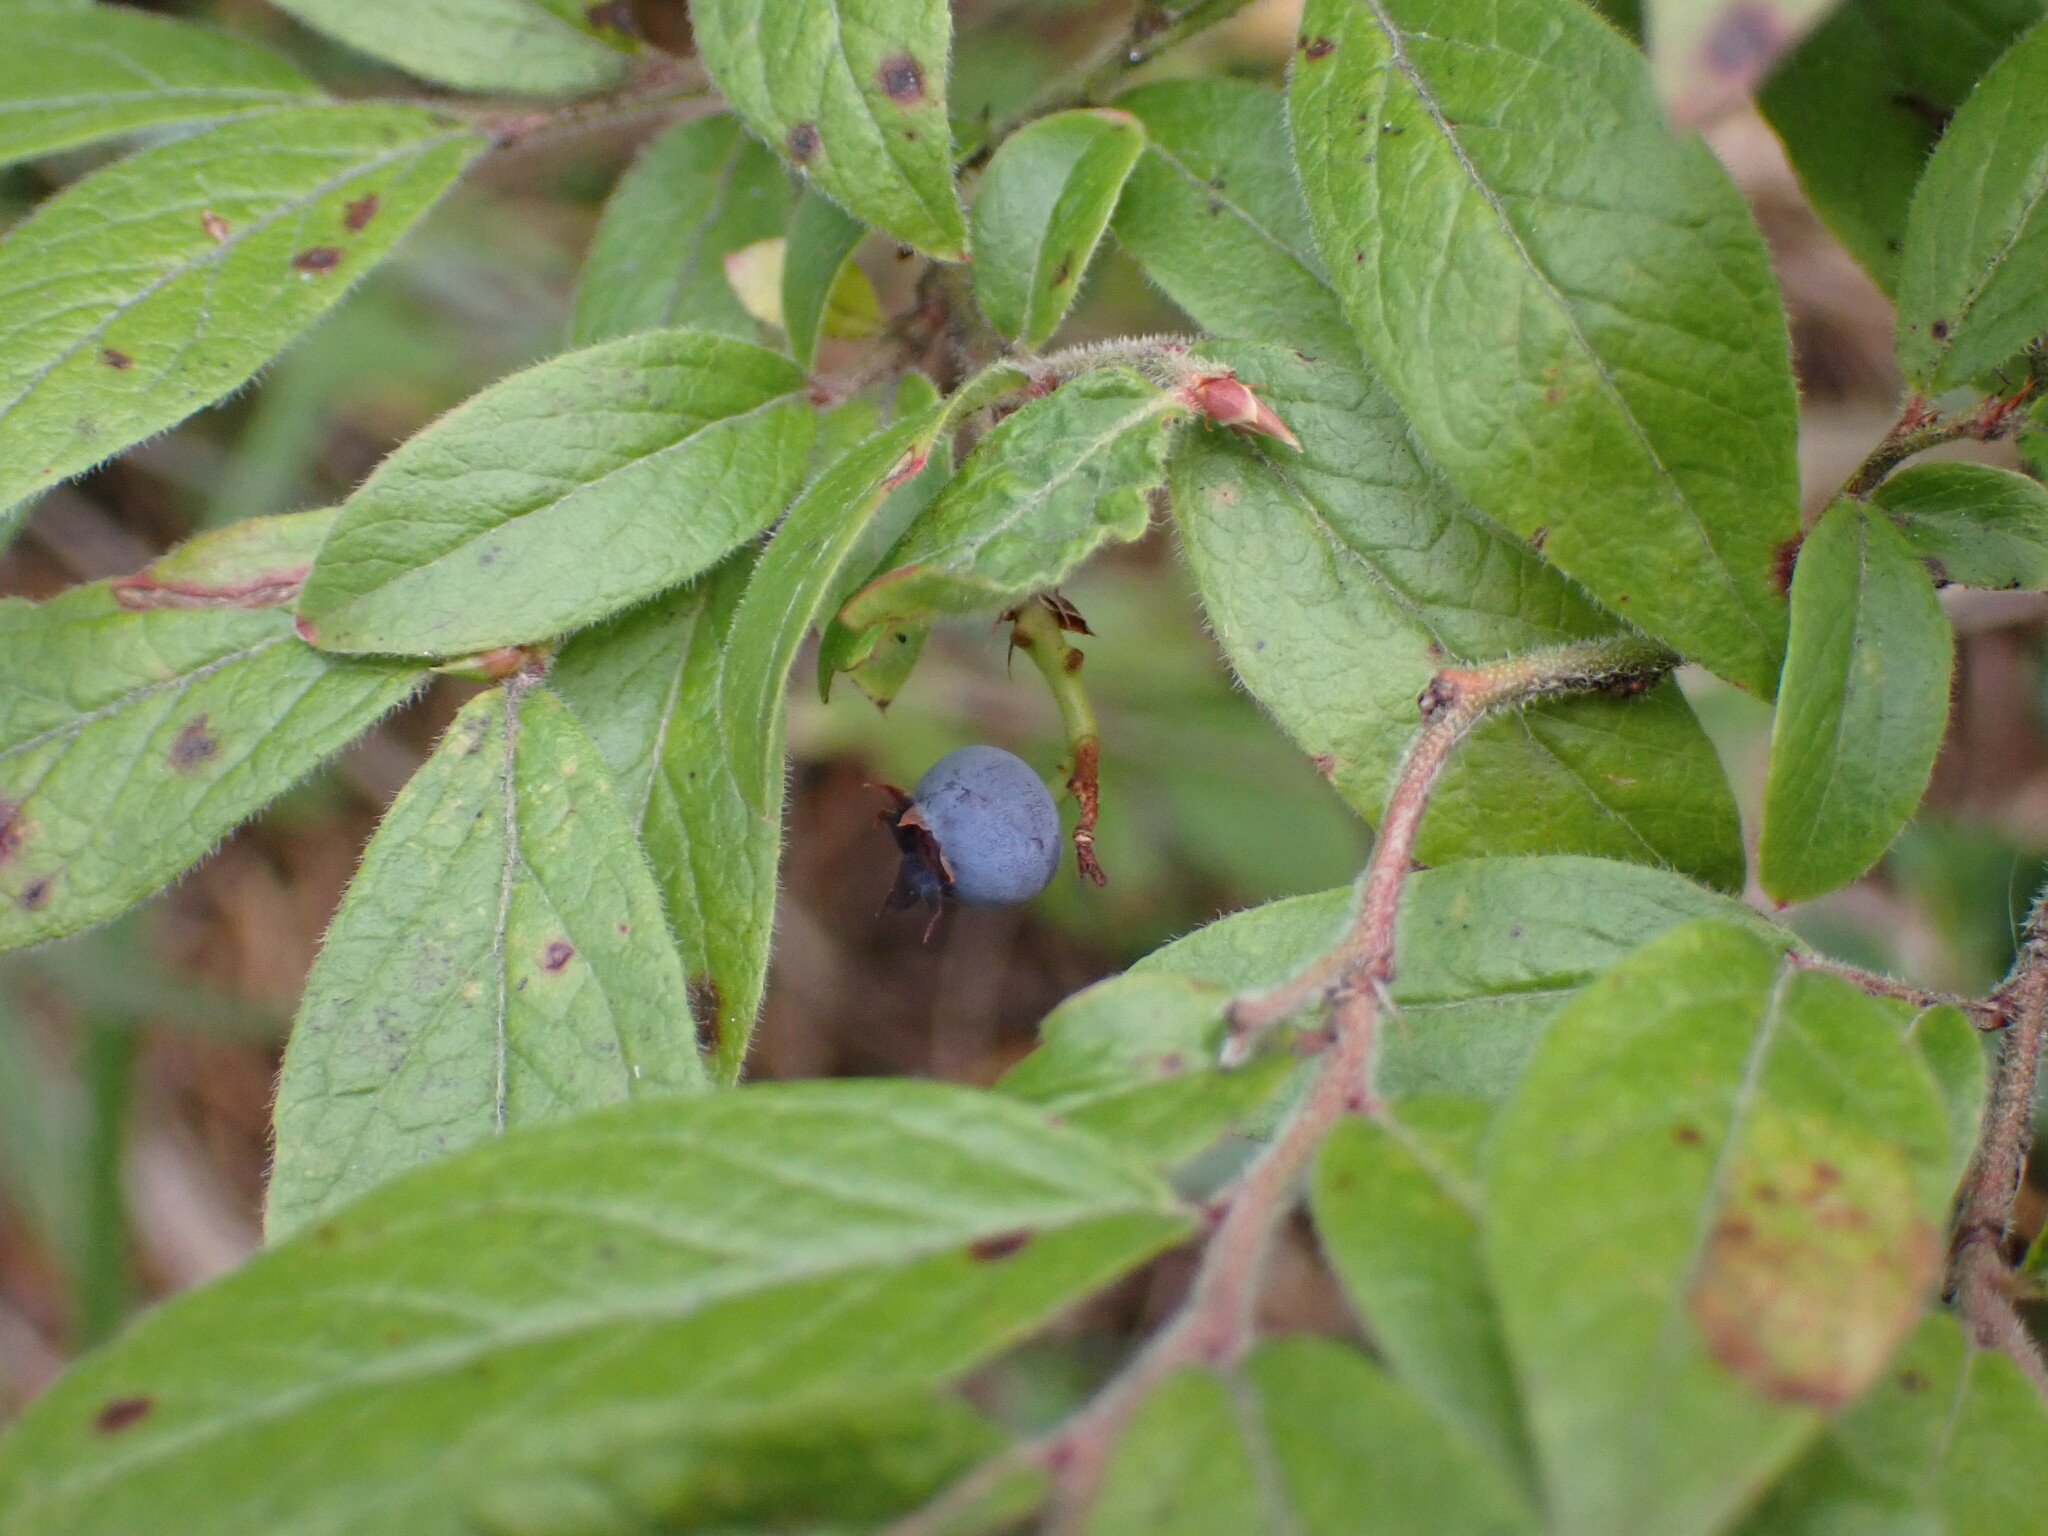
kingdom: Plantae
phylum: Tracheophyta
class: Magnoliopsida
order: Ericales
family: Ericaceae
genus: Vaccinium
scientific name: Vaccinium myrtilloides
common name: Canada blueberry
